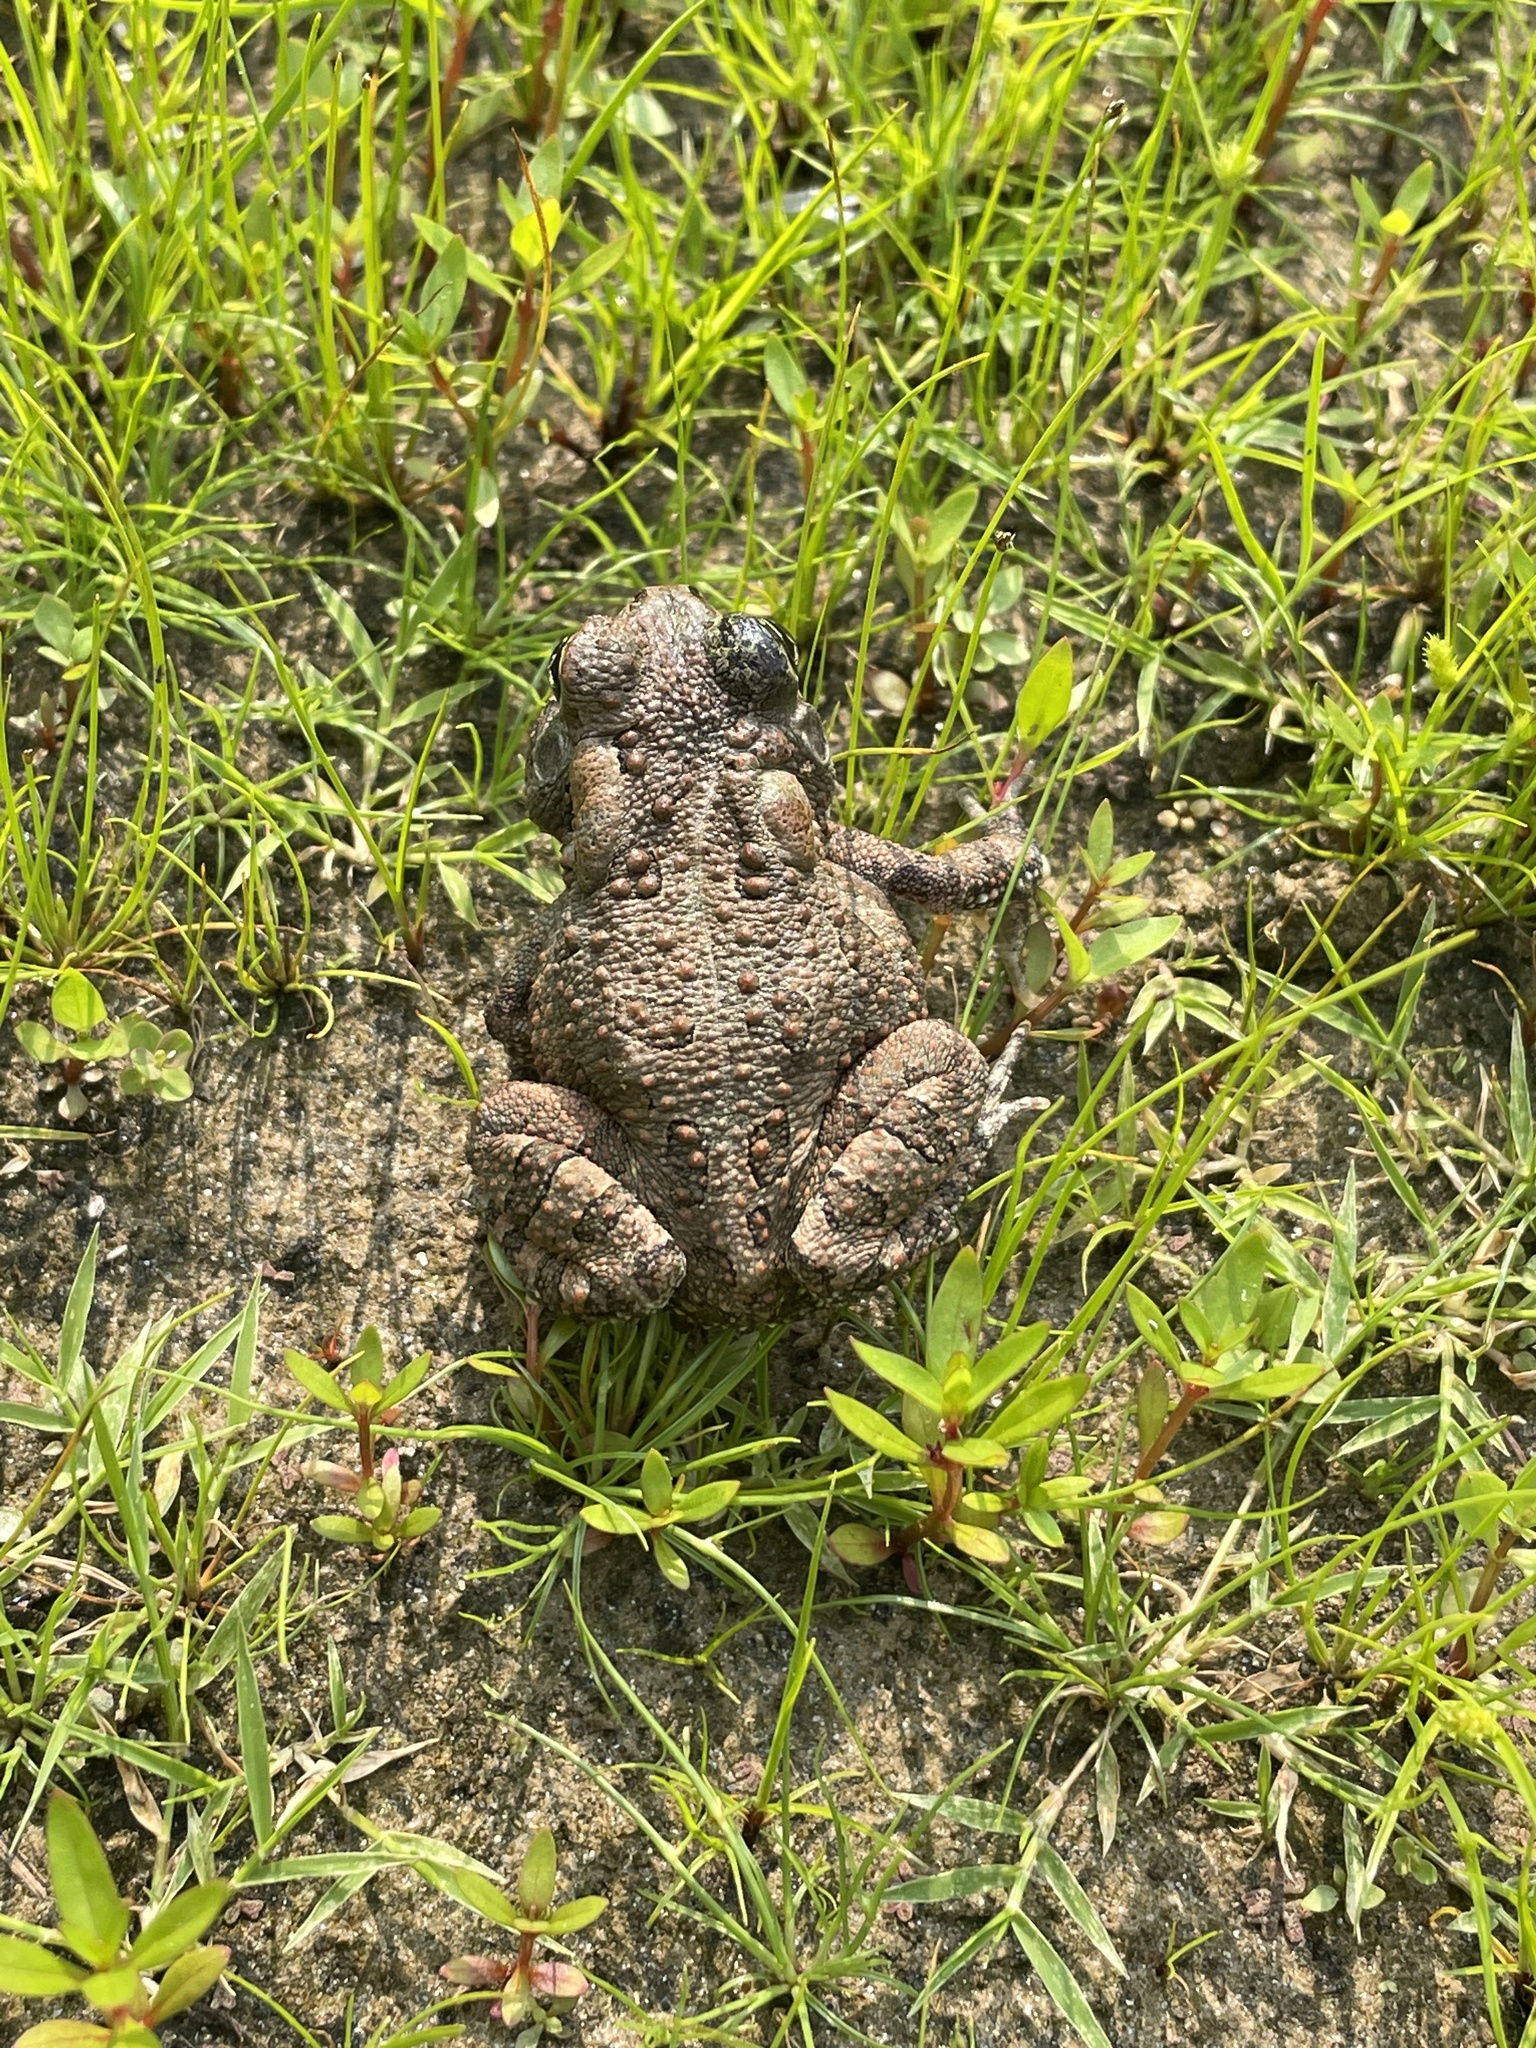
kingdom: Animalia
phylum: Chordata
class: Amphibia
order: Anura
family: Bufonidae
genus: Anaxyrus
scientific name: Anaxyrus fowleri
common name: Fowler's toad
